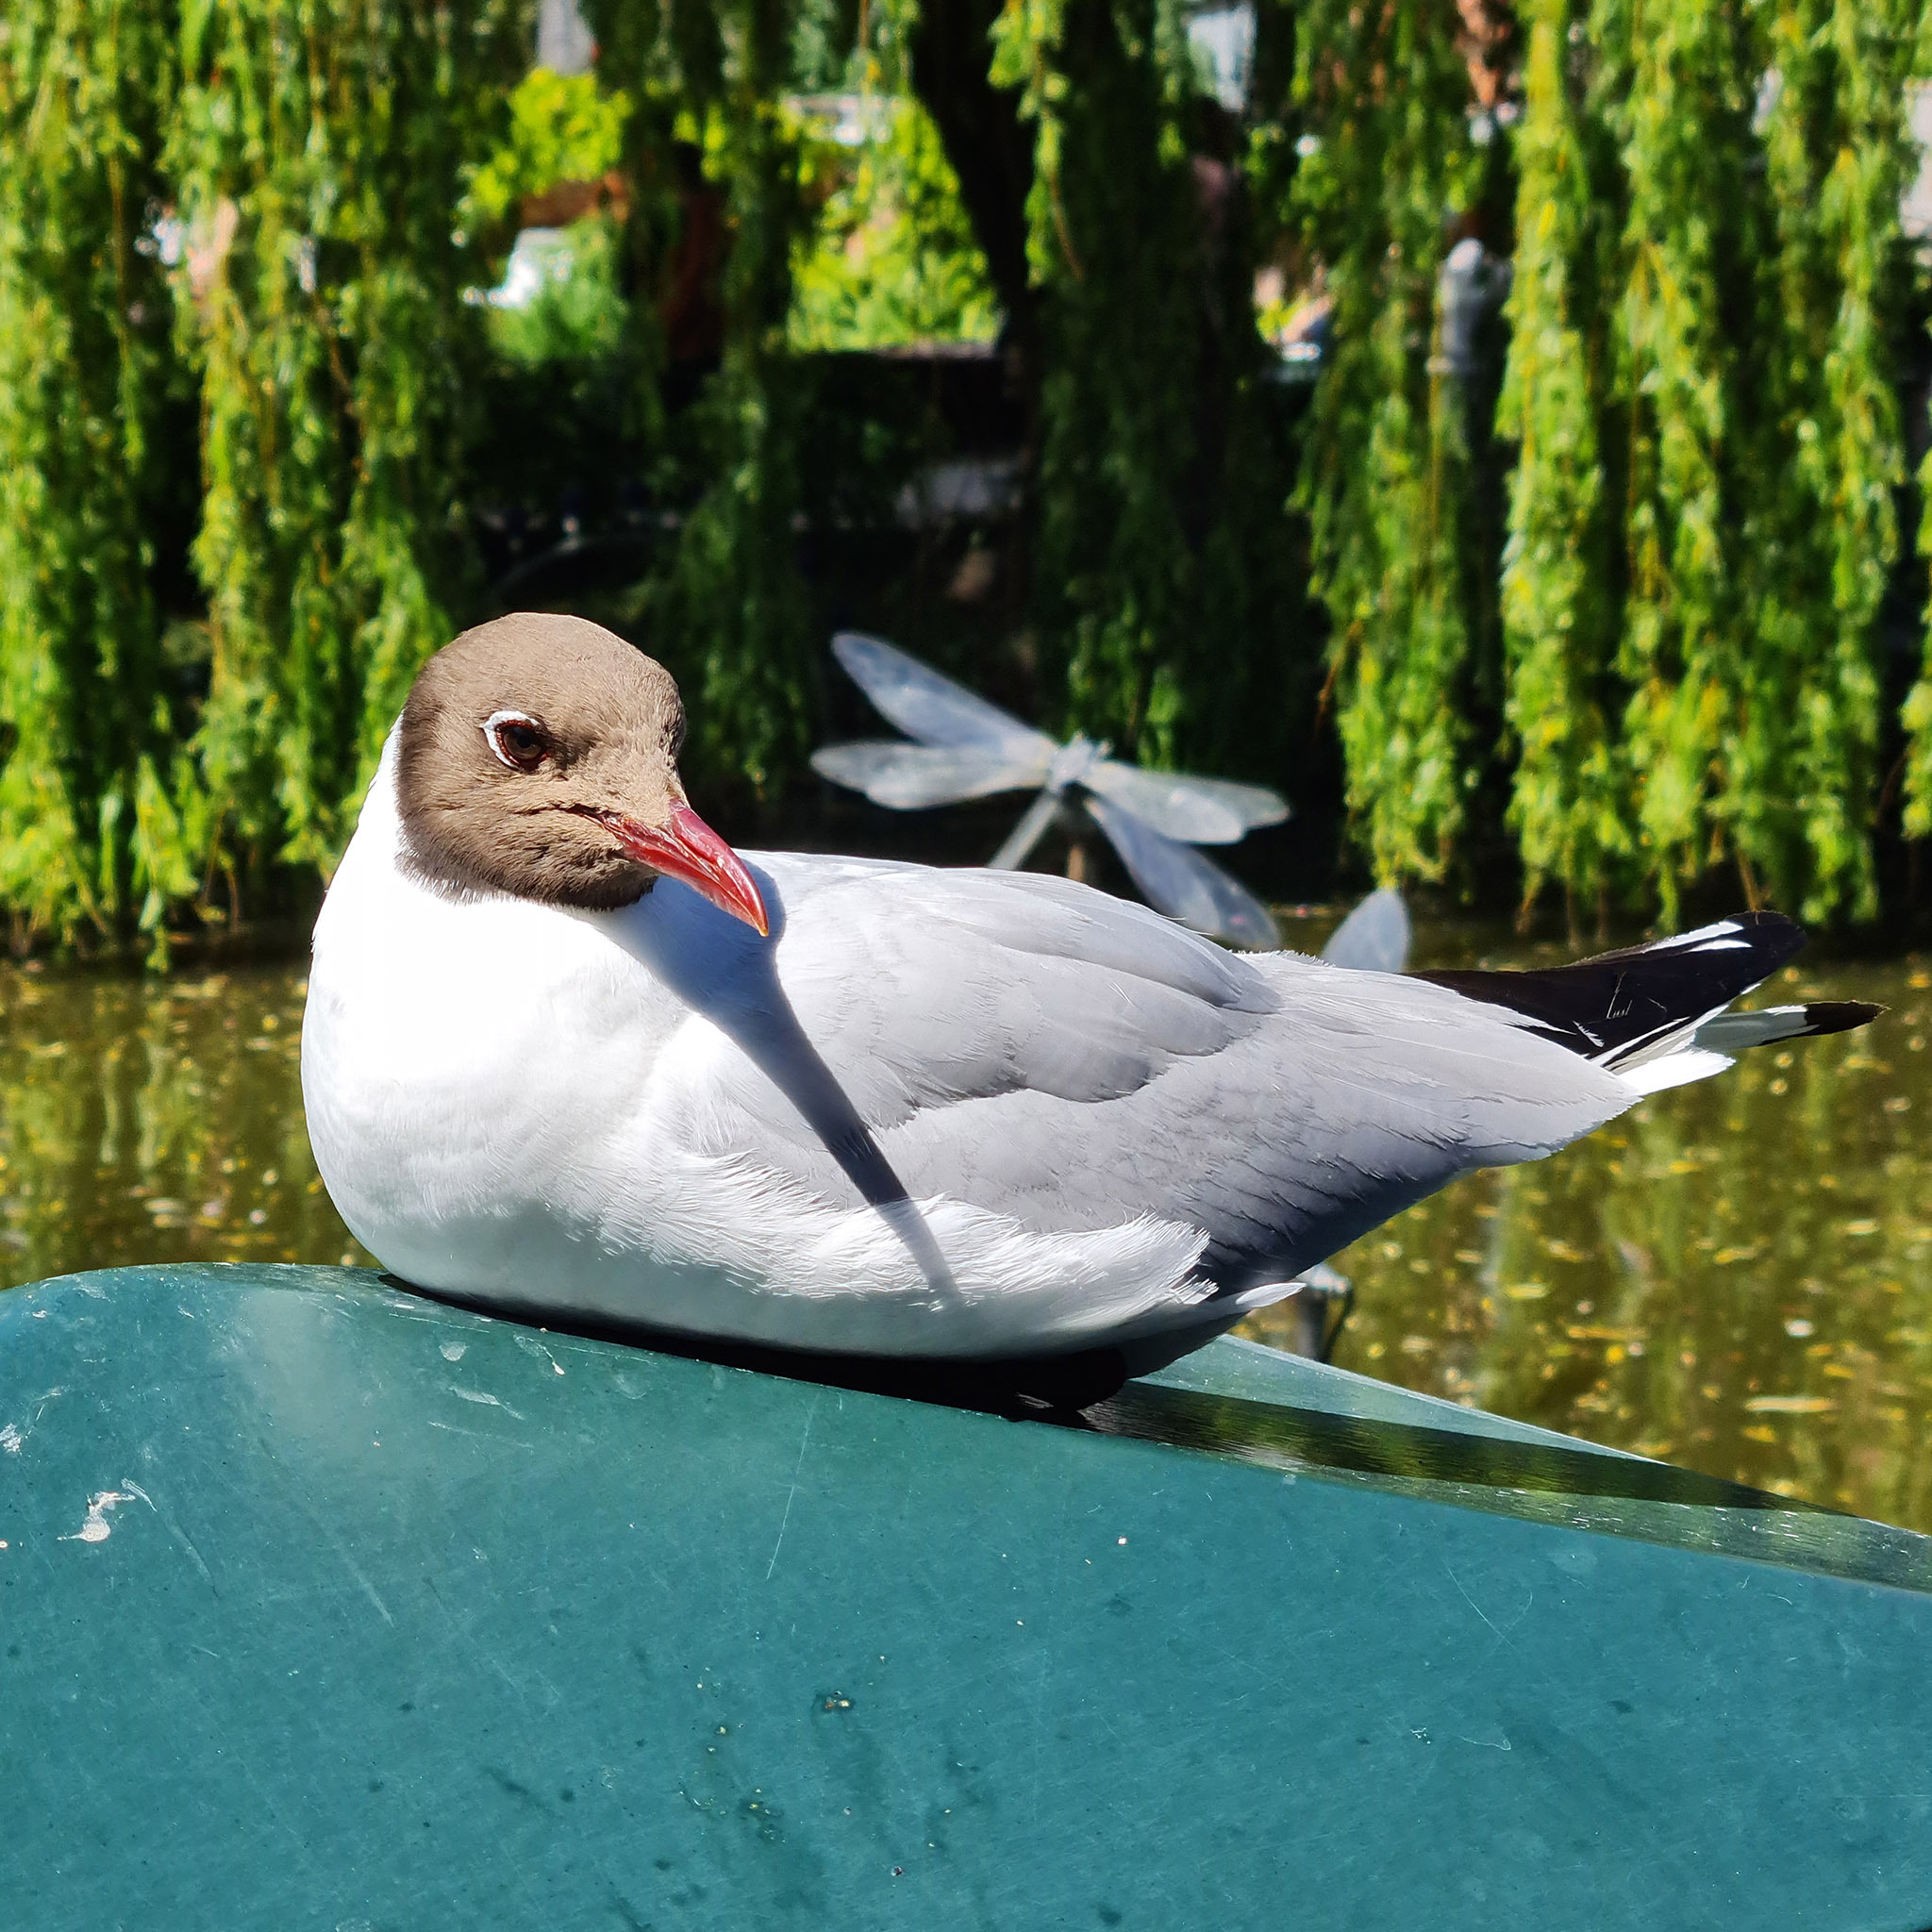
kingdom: Animalia
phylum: Chordata
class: Aves
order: Charadriiformes
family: Laridae
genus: Chroicocephalus
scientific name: Chroicocephalus ridibundus
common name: Black-headed gull
